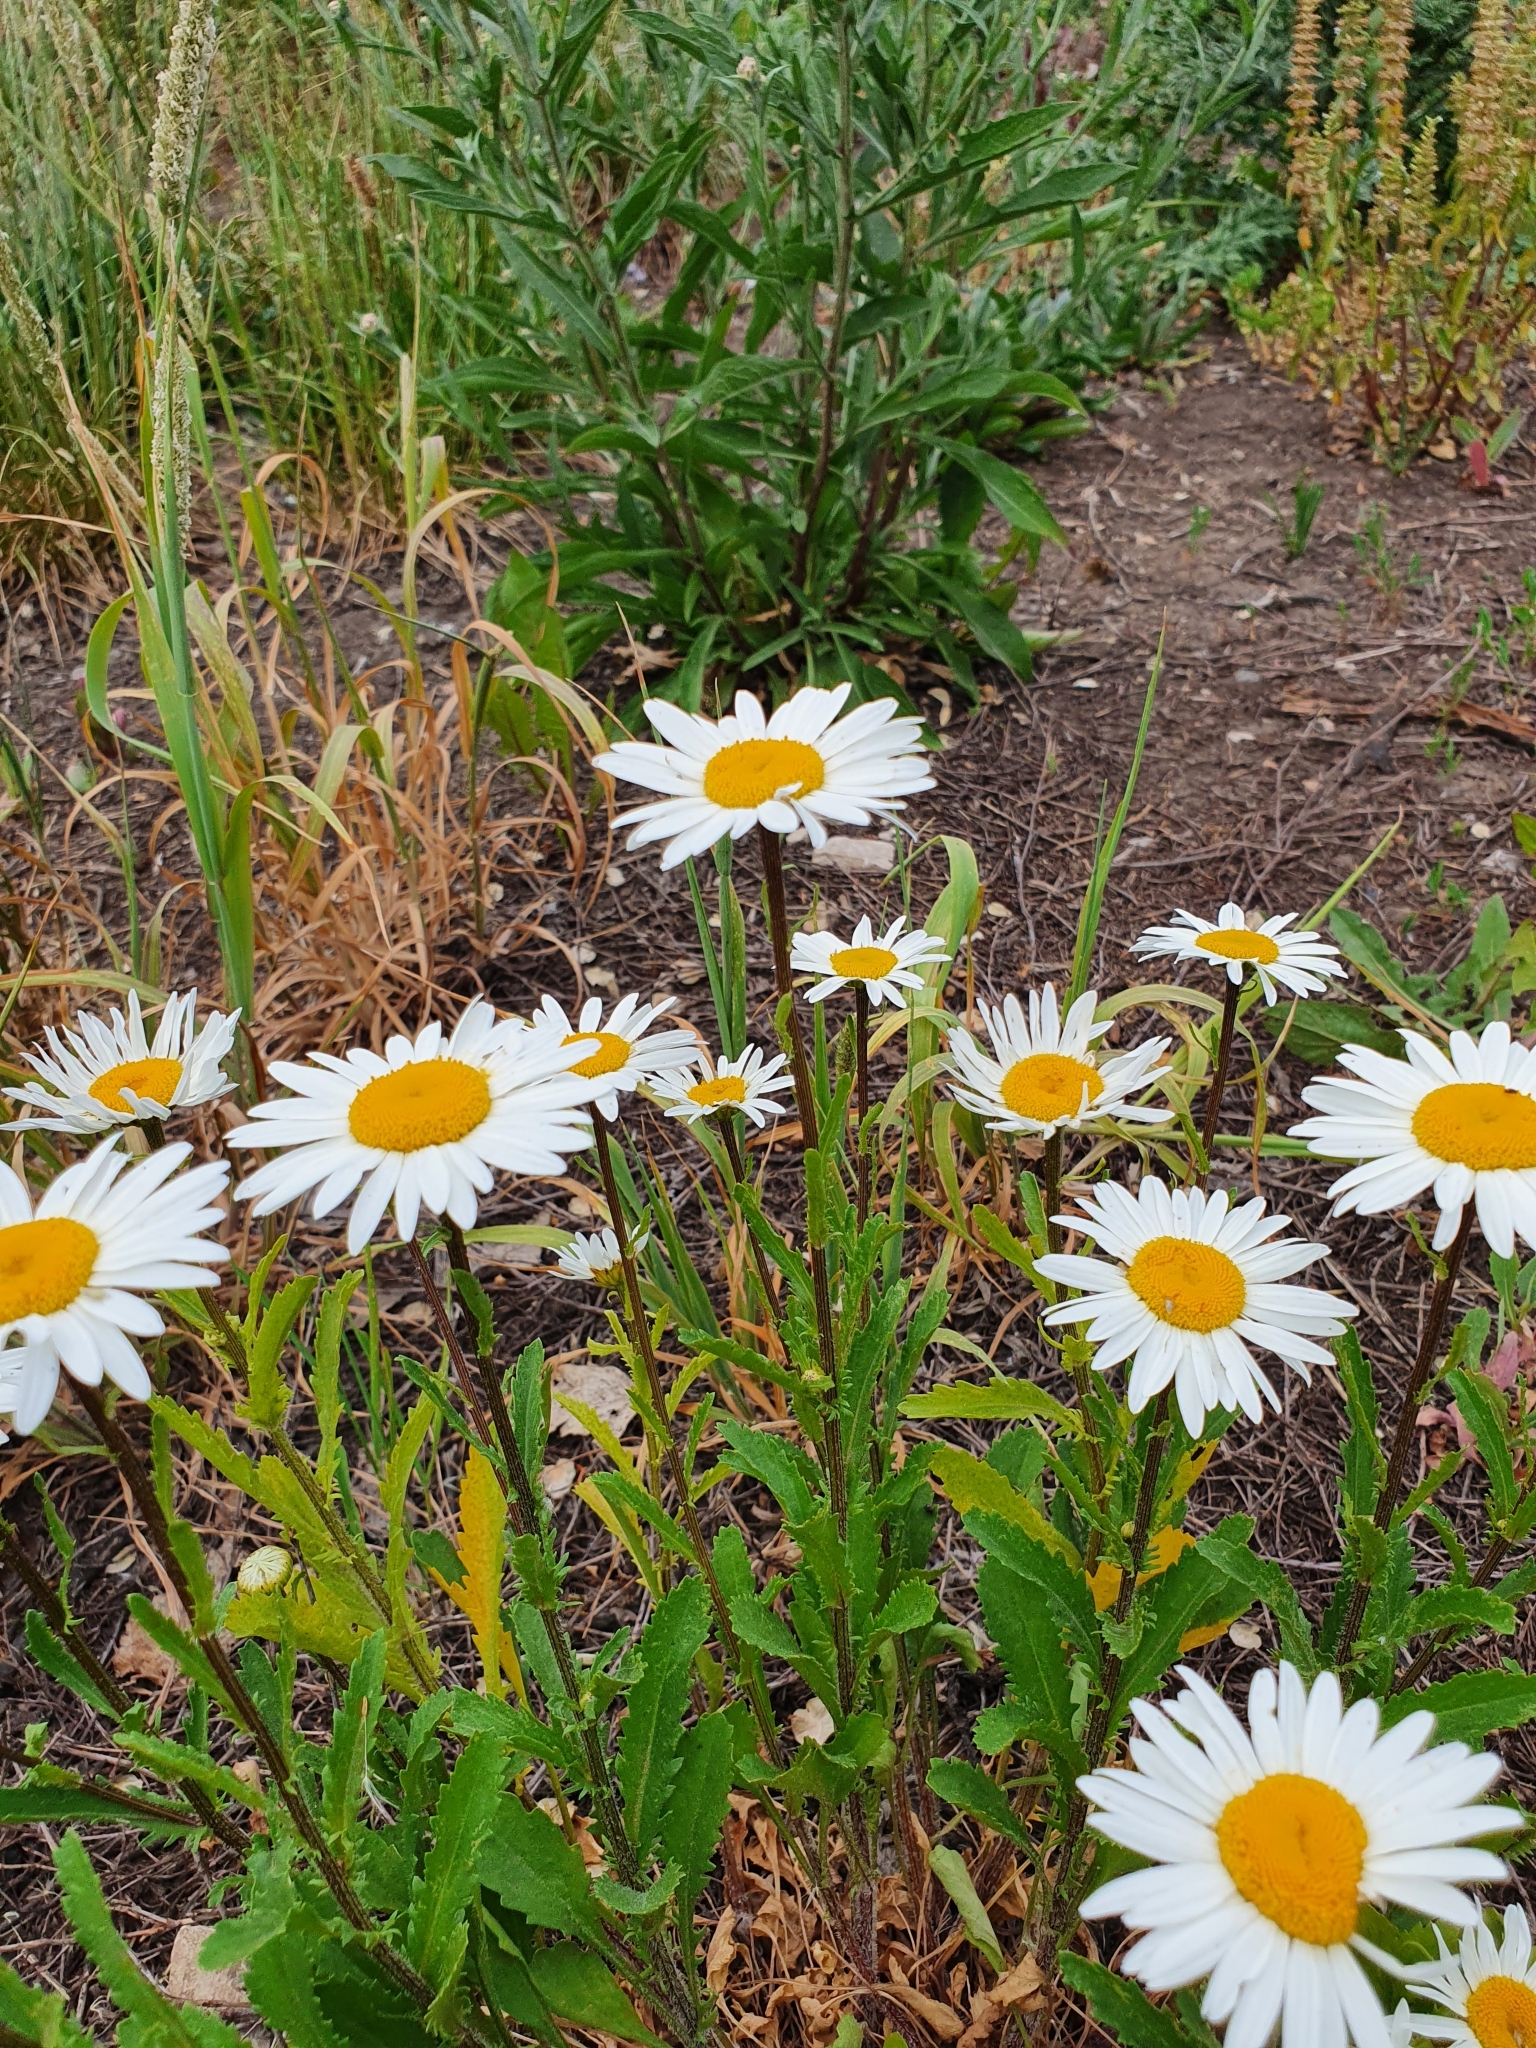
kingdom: Plantae
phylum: Tracheophyta
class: Magnoliopsida
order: Asterales
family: Asteraceae
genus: Leucanthemum
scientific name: Leucanthemum vulgare
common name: Oxeye daisy
